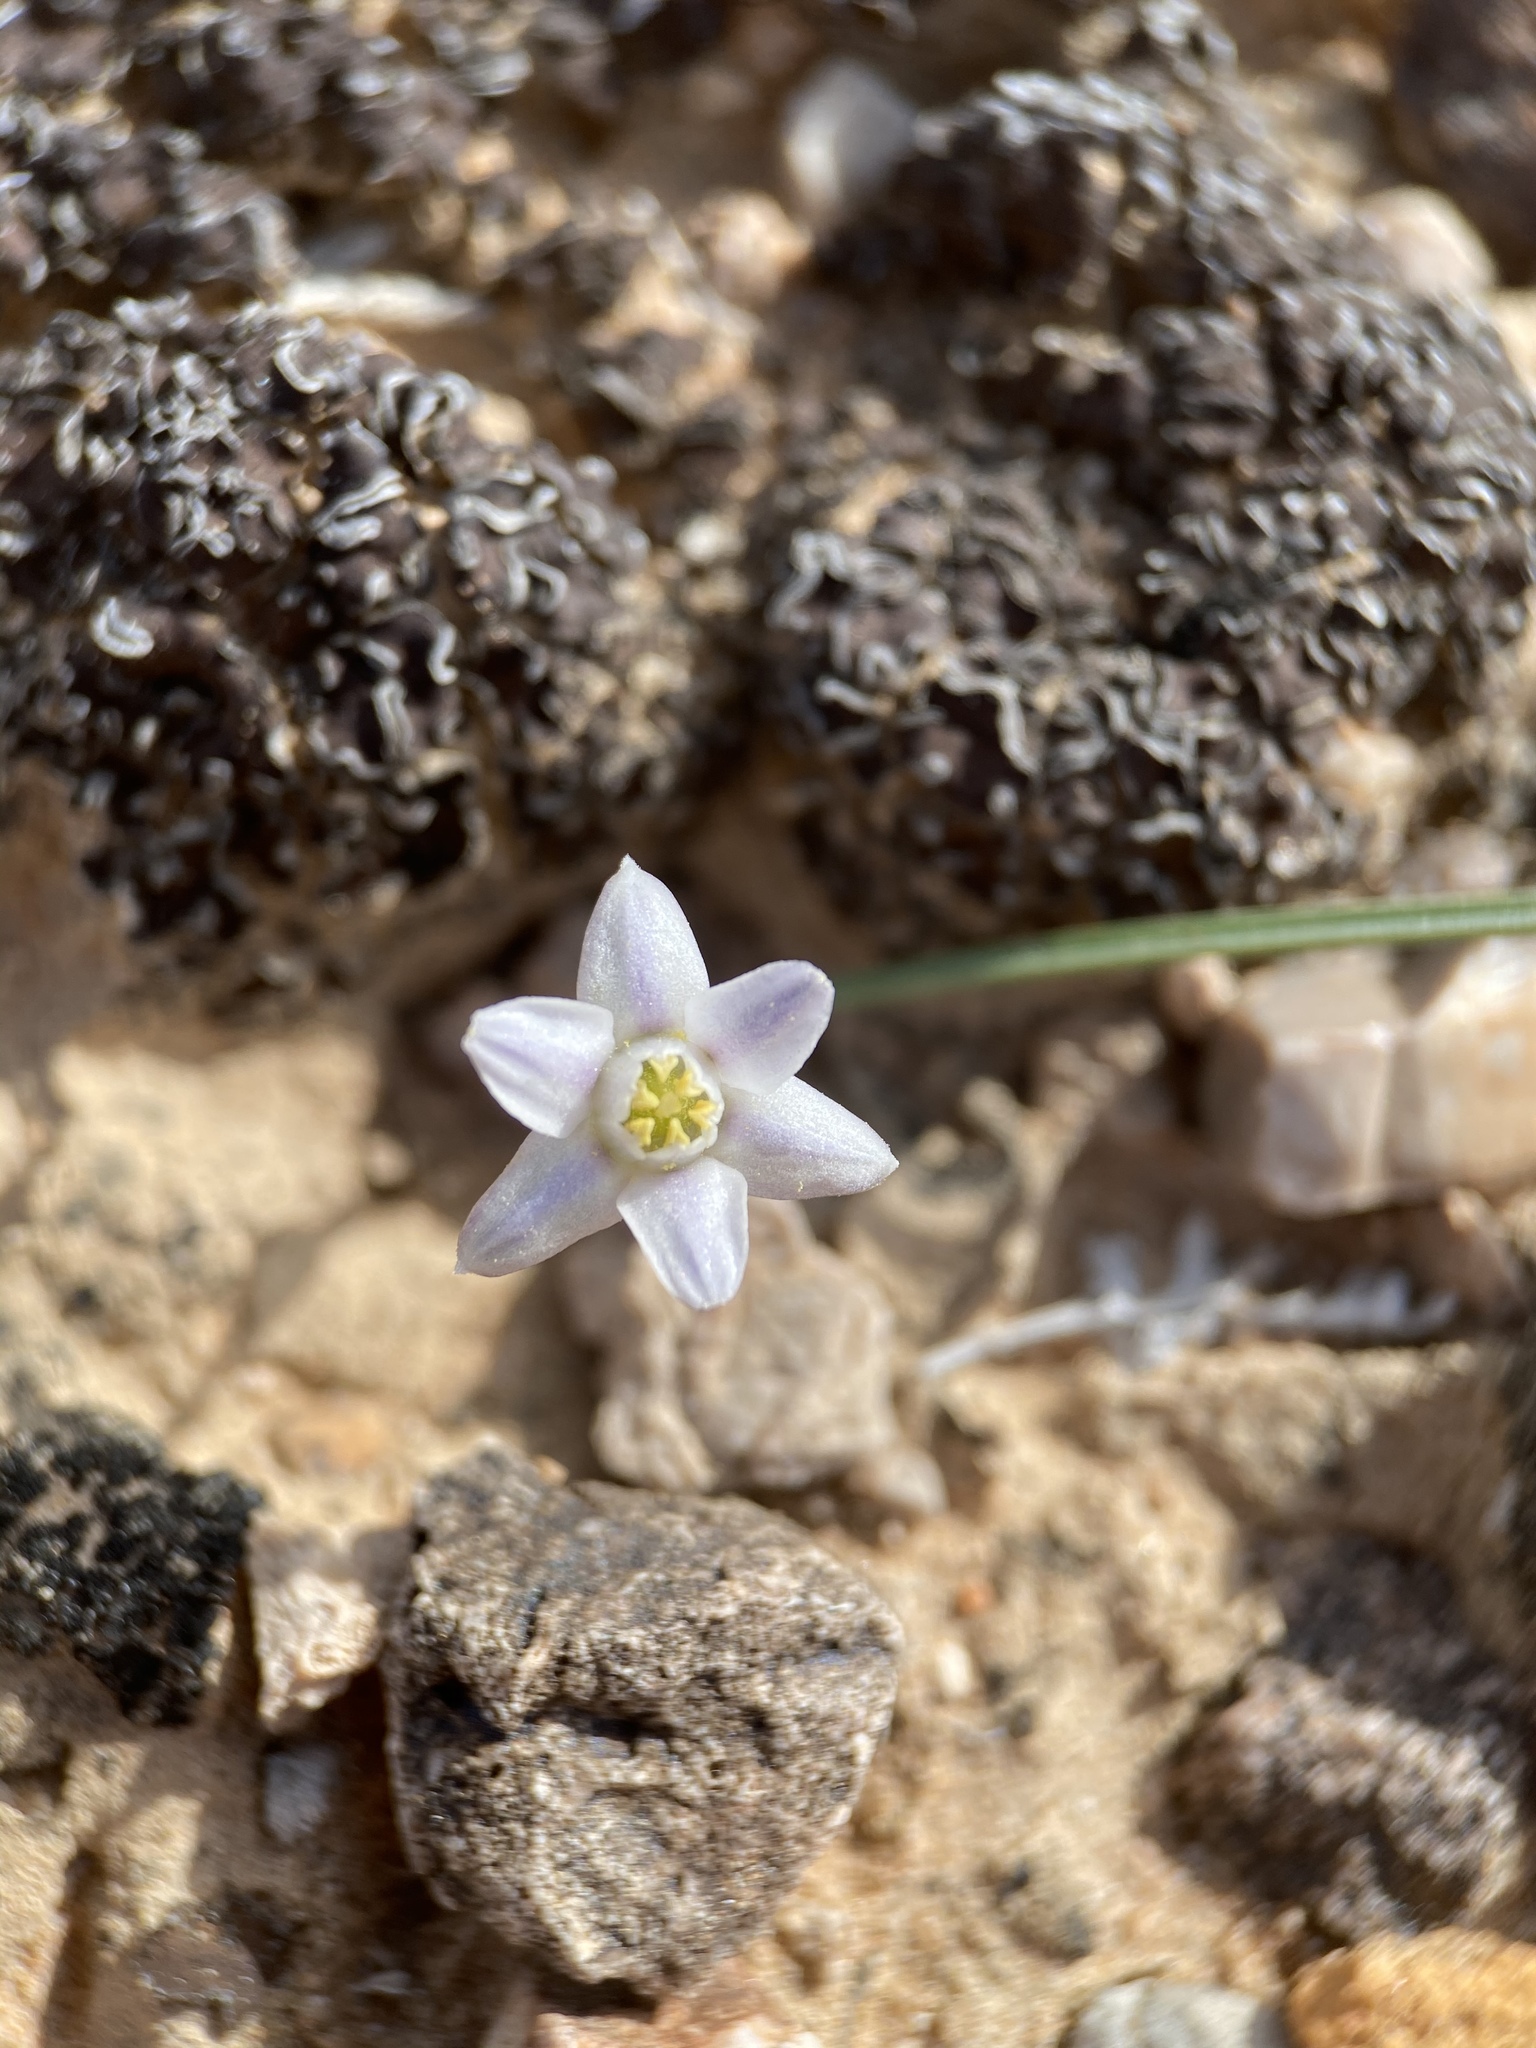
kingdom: Plantae
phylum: Tracheophyta
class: Liliopsida
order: Asparagales
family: Asparagaceae
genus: Muilla
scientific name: Muilla coronata
